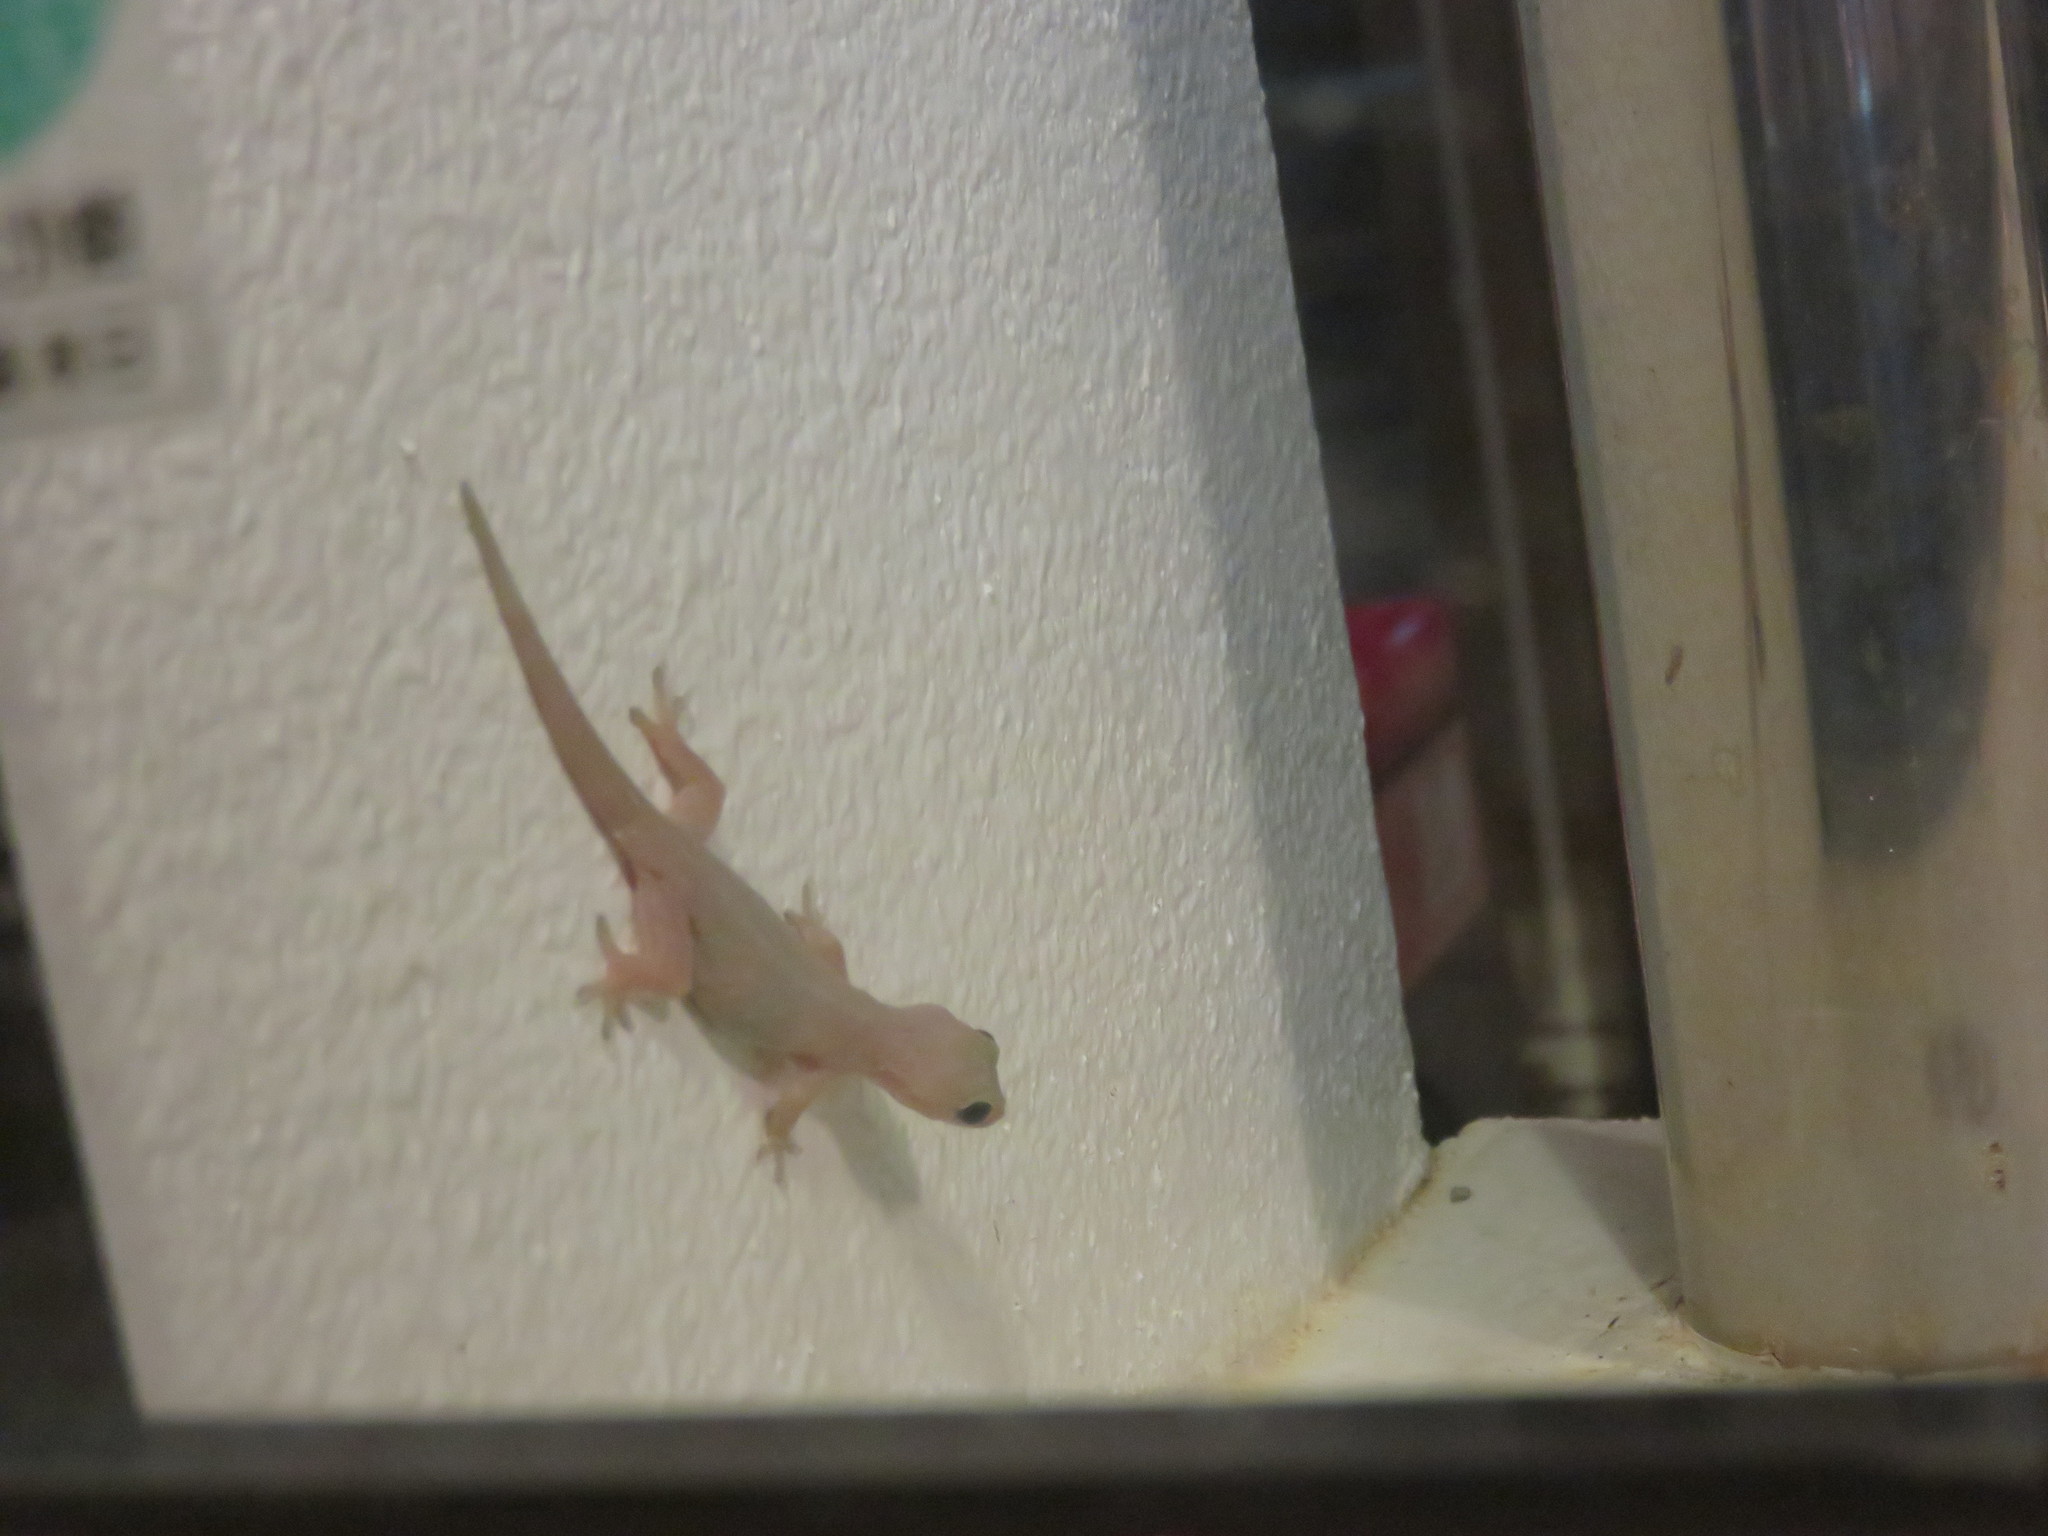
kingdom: Animalia
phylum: Chordata
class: Squamata
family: Gekkonidae
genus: Hemidactylus
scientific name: Hemidactylus frenatus
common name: Common house gecko
